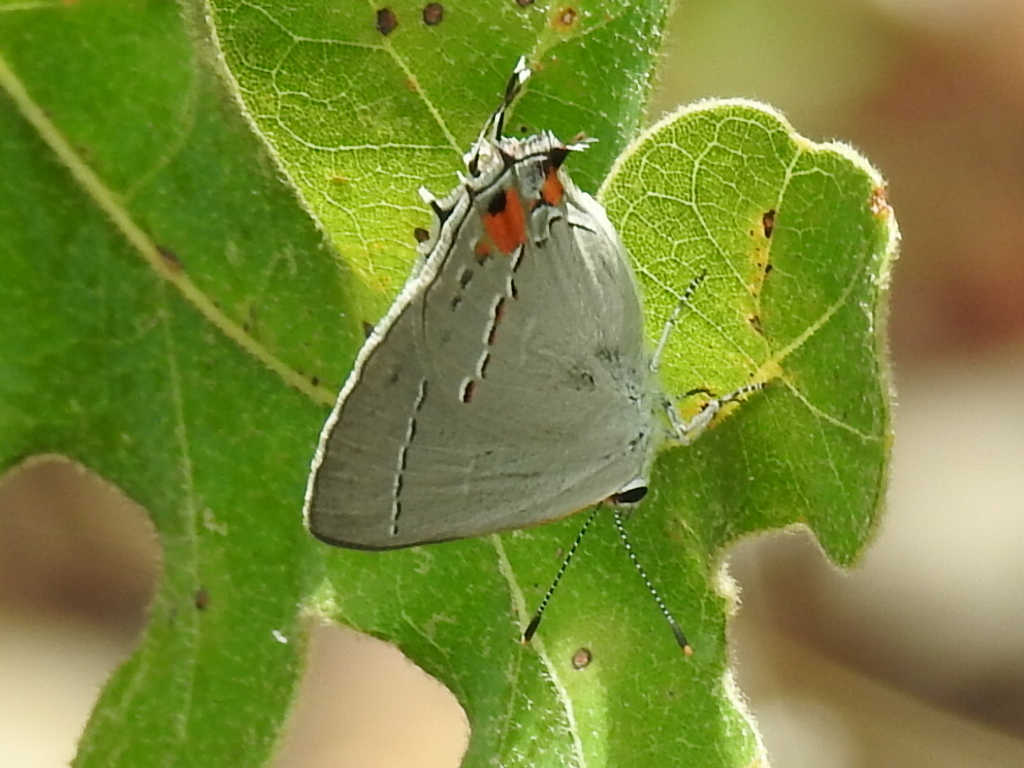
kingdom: Animalia
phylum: Arthropoda
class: Insecta
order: Lepidoptera
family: Lycaenidae
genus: Strymon
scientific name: Strymon melinus
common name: Gray hairstreak
